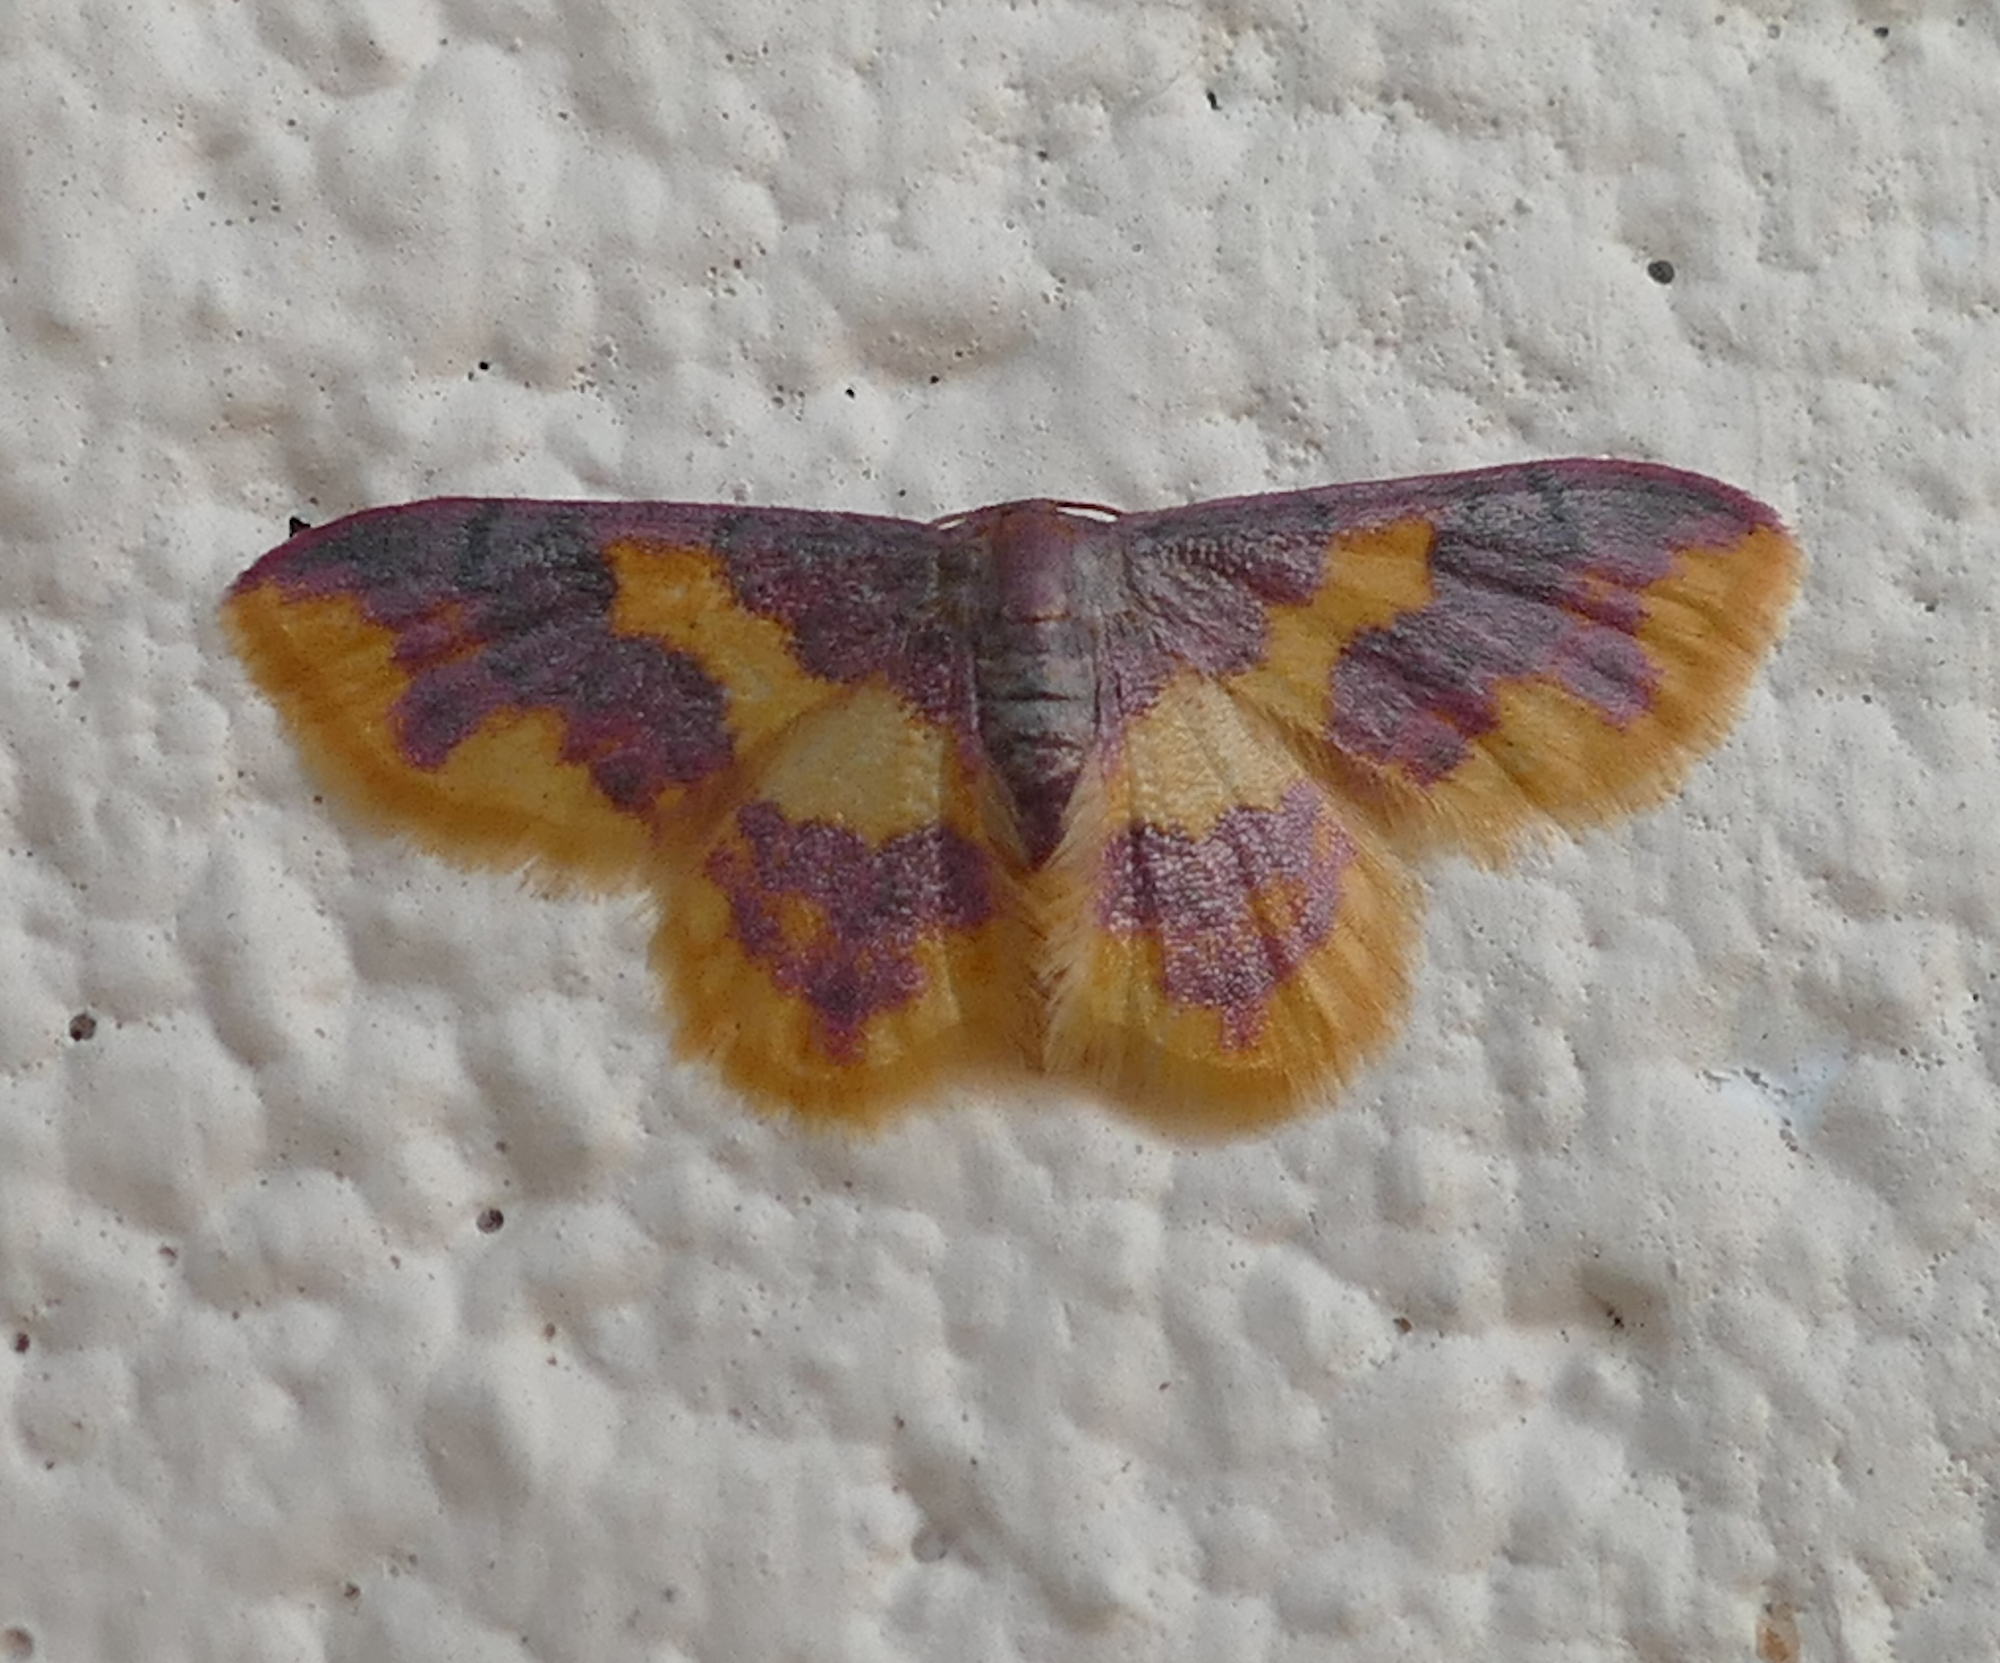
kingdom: Animalia
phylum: Arthropoda
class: Insecta
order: Lepidoptera
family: Geometridae
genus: Lophosis
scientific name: Lophosis labeculata
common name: Stained lophosis moth
